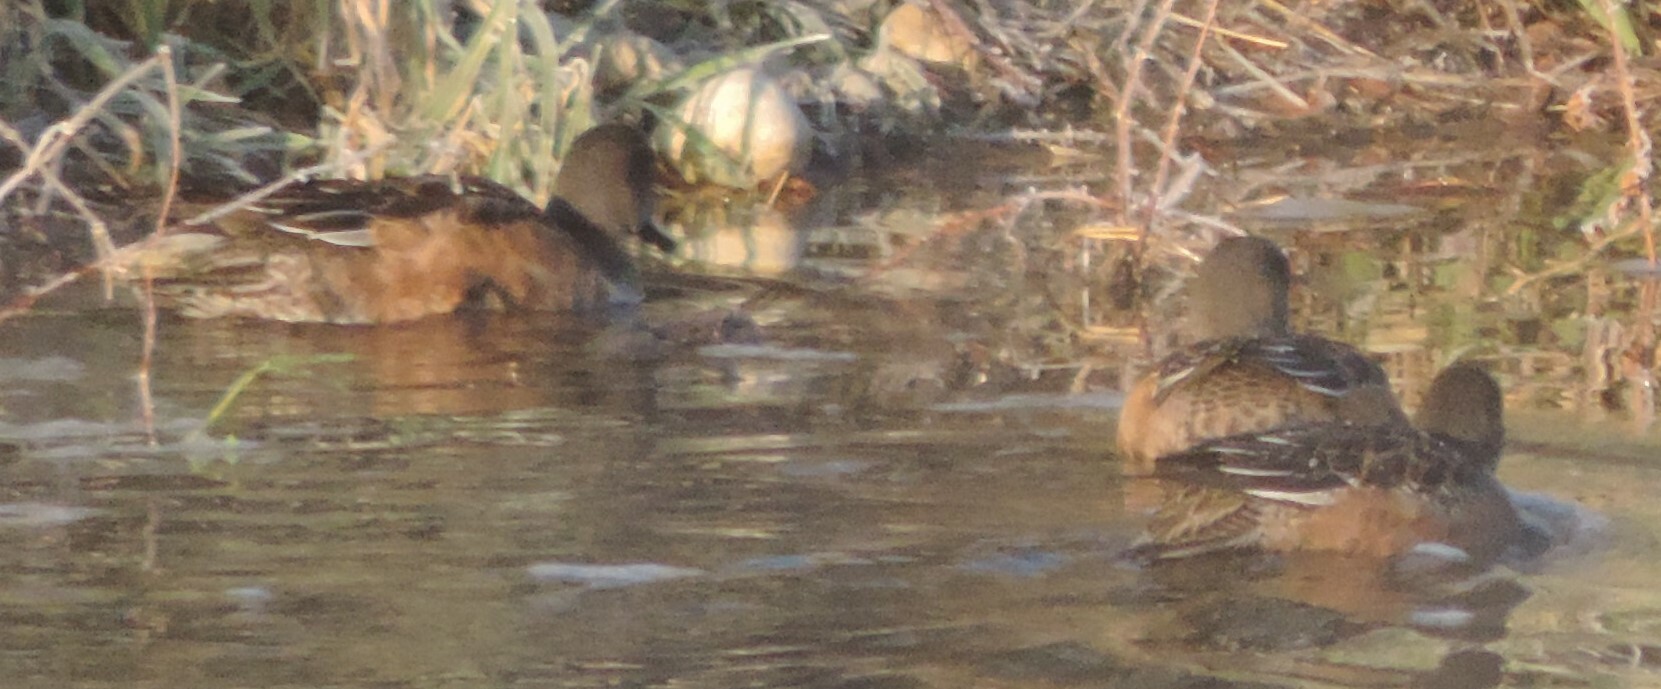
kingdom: Animalia
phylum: Chordata
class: Aves
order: Anseriformes
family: Anatidae
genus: Mareca
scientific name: Mareca americana
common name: American wigeon
